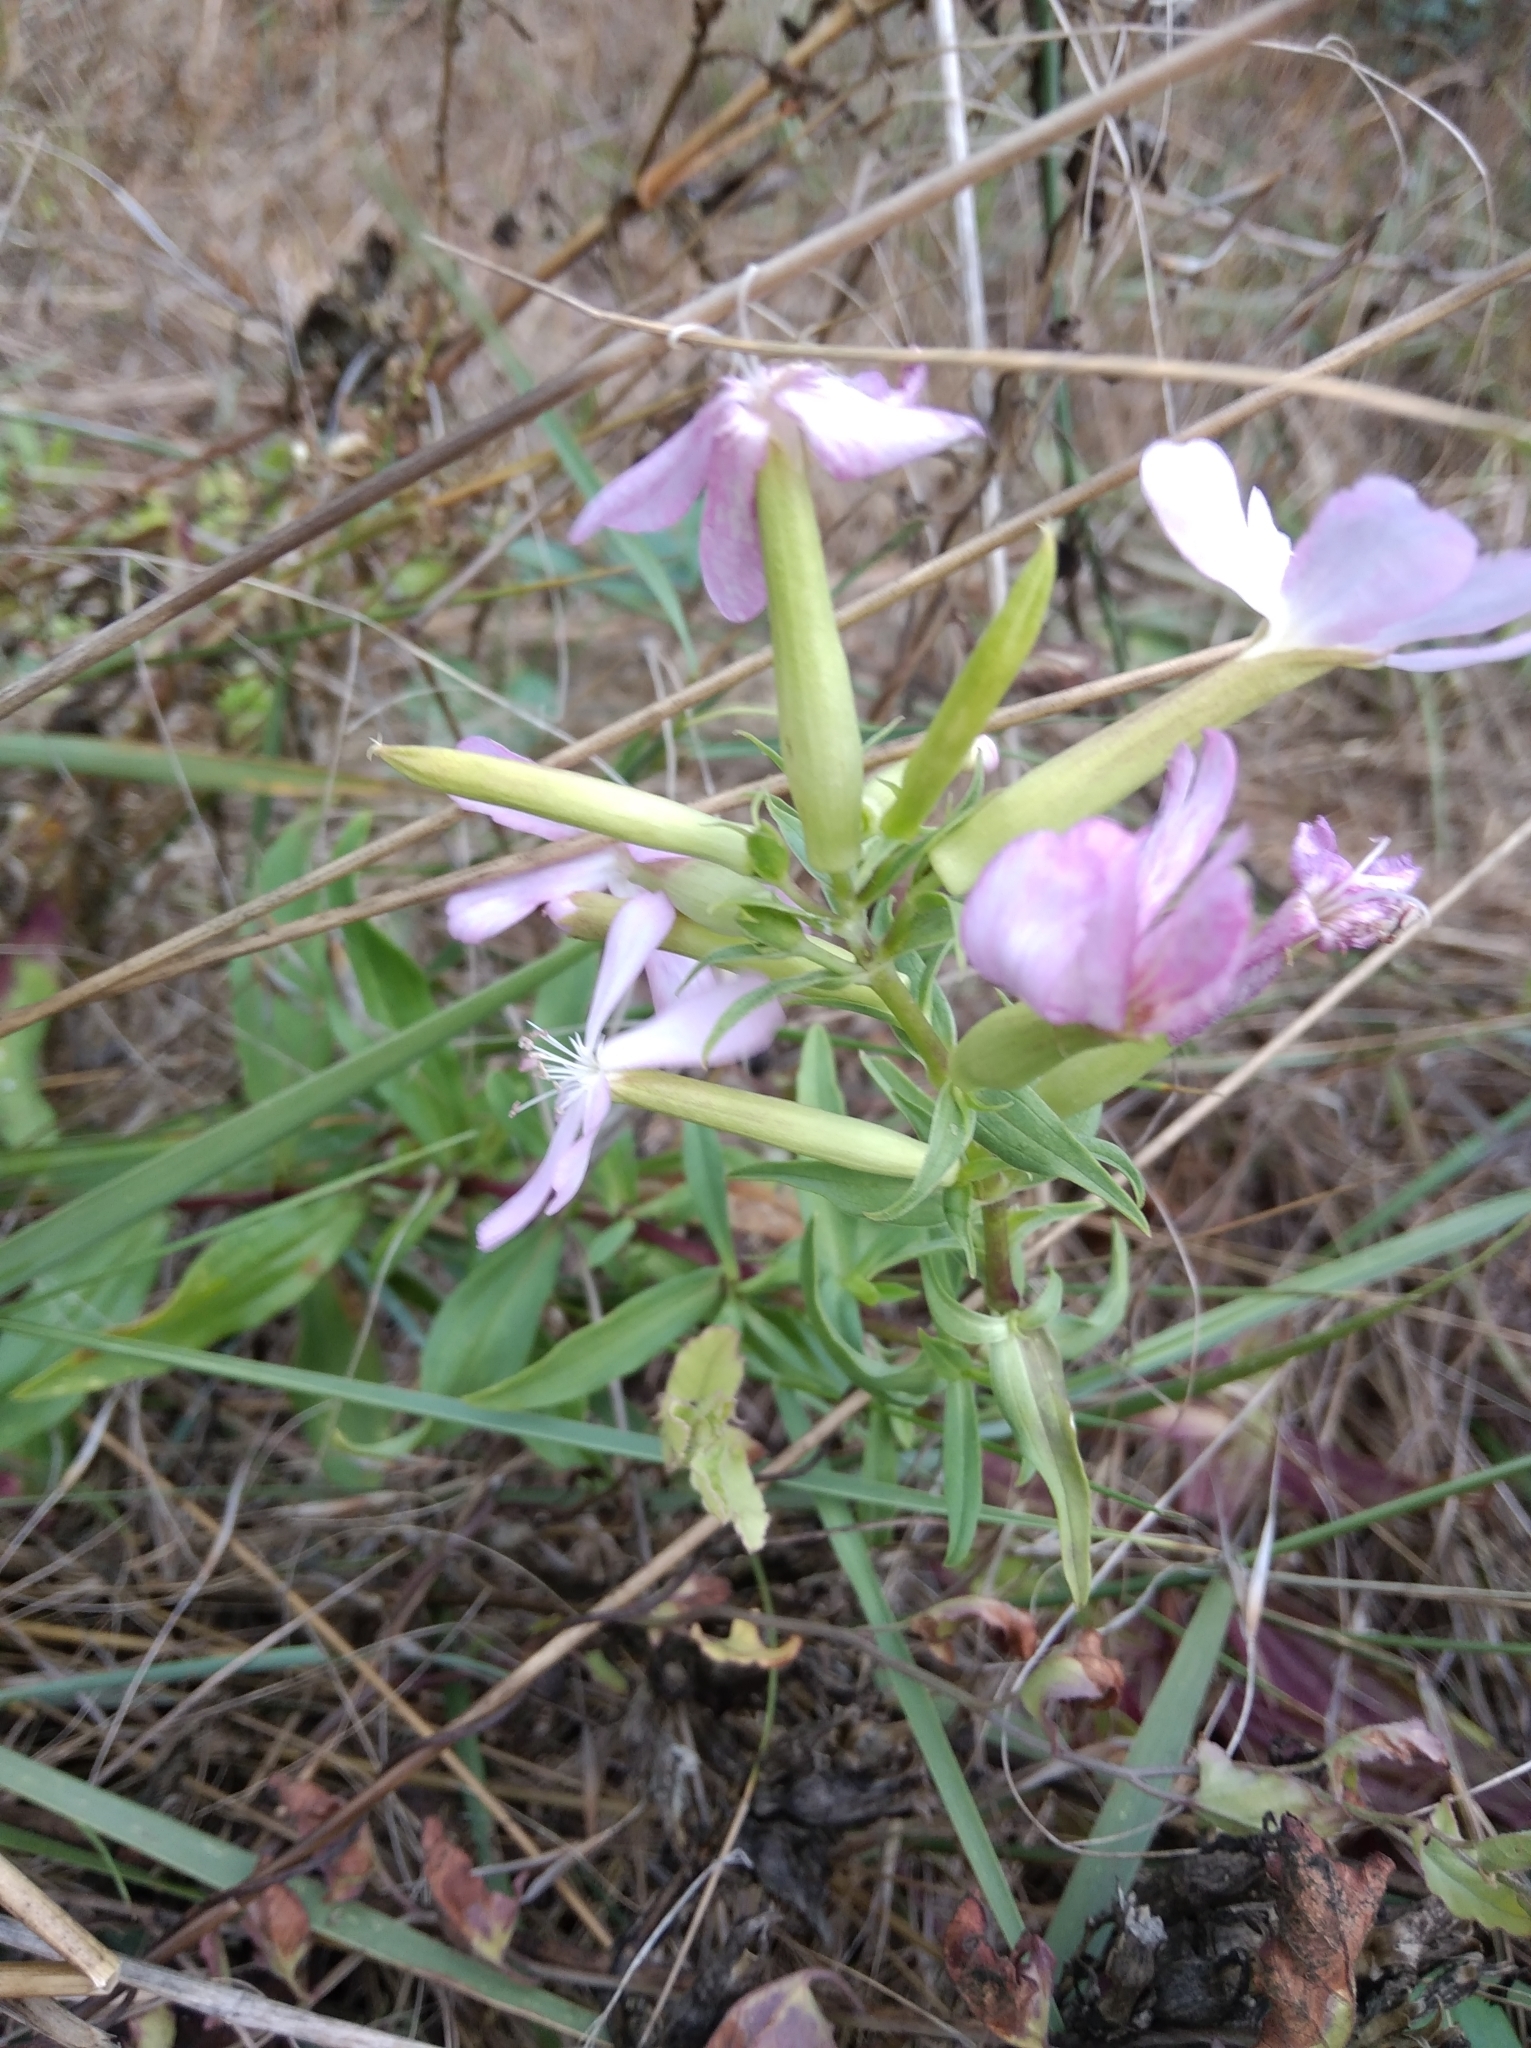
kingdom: Plantae
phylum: Tracheophyta
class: Magnoliopsida
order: Caryophyllales
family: Caryophyllaceae
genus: Saponaria
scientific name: Saponaria officinalis
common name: Soapwort
